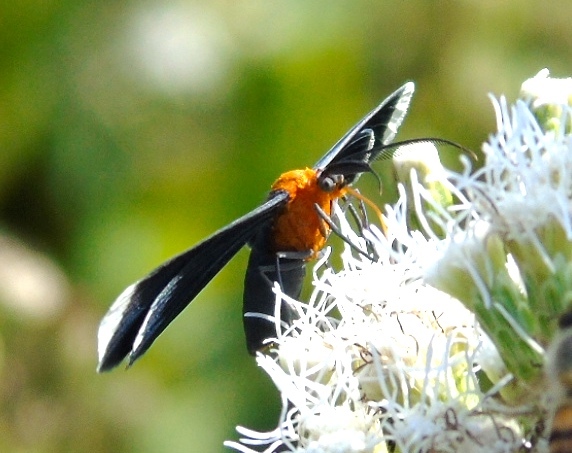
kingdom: Animalia
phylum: Arthropoda
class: Insecta
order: Lepidoptera
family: Geometridae
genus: Melanchroia
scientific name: Melanchroia chephise
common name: White-tipped black
